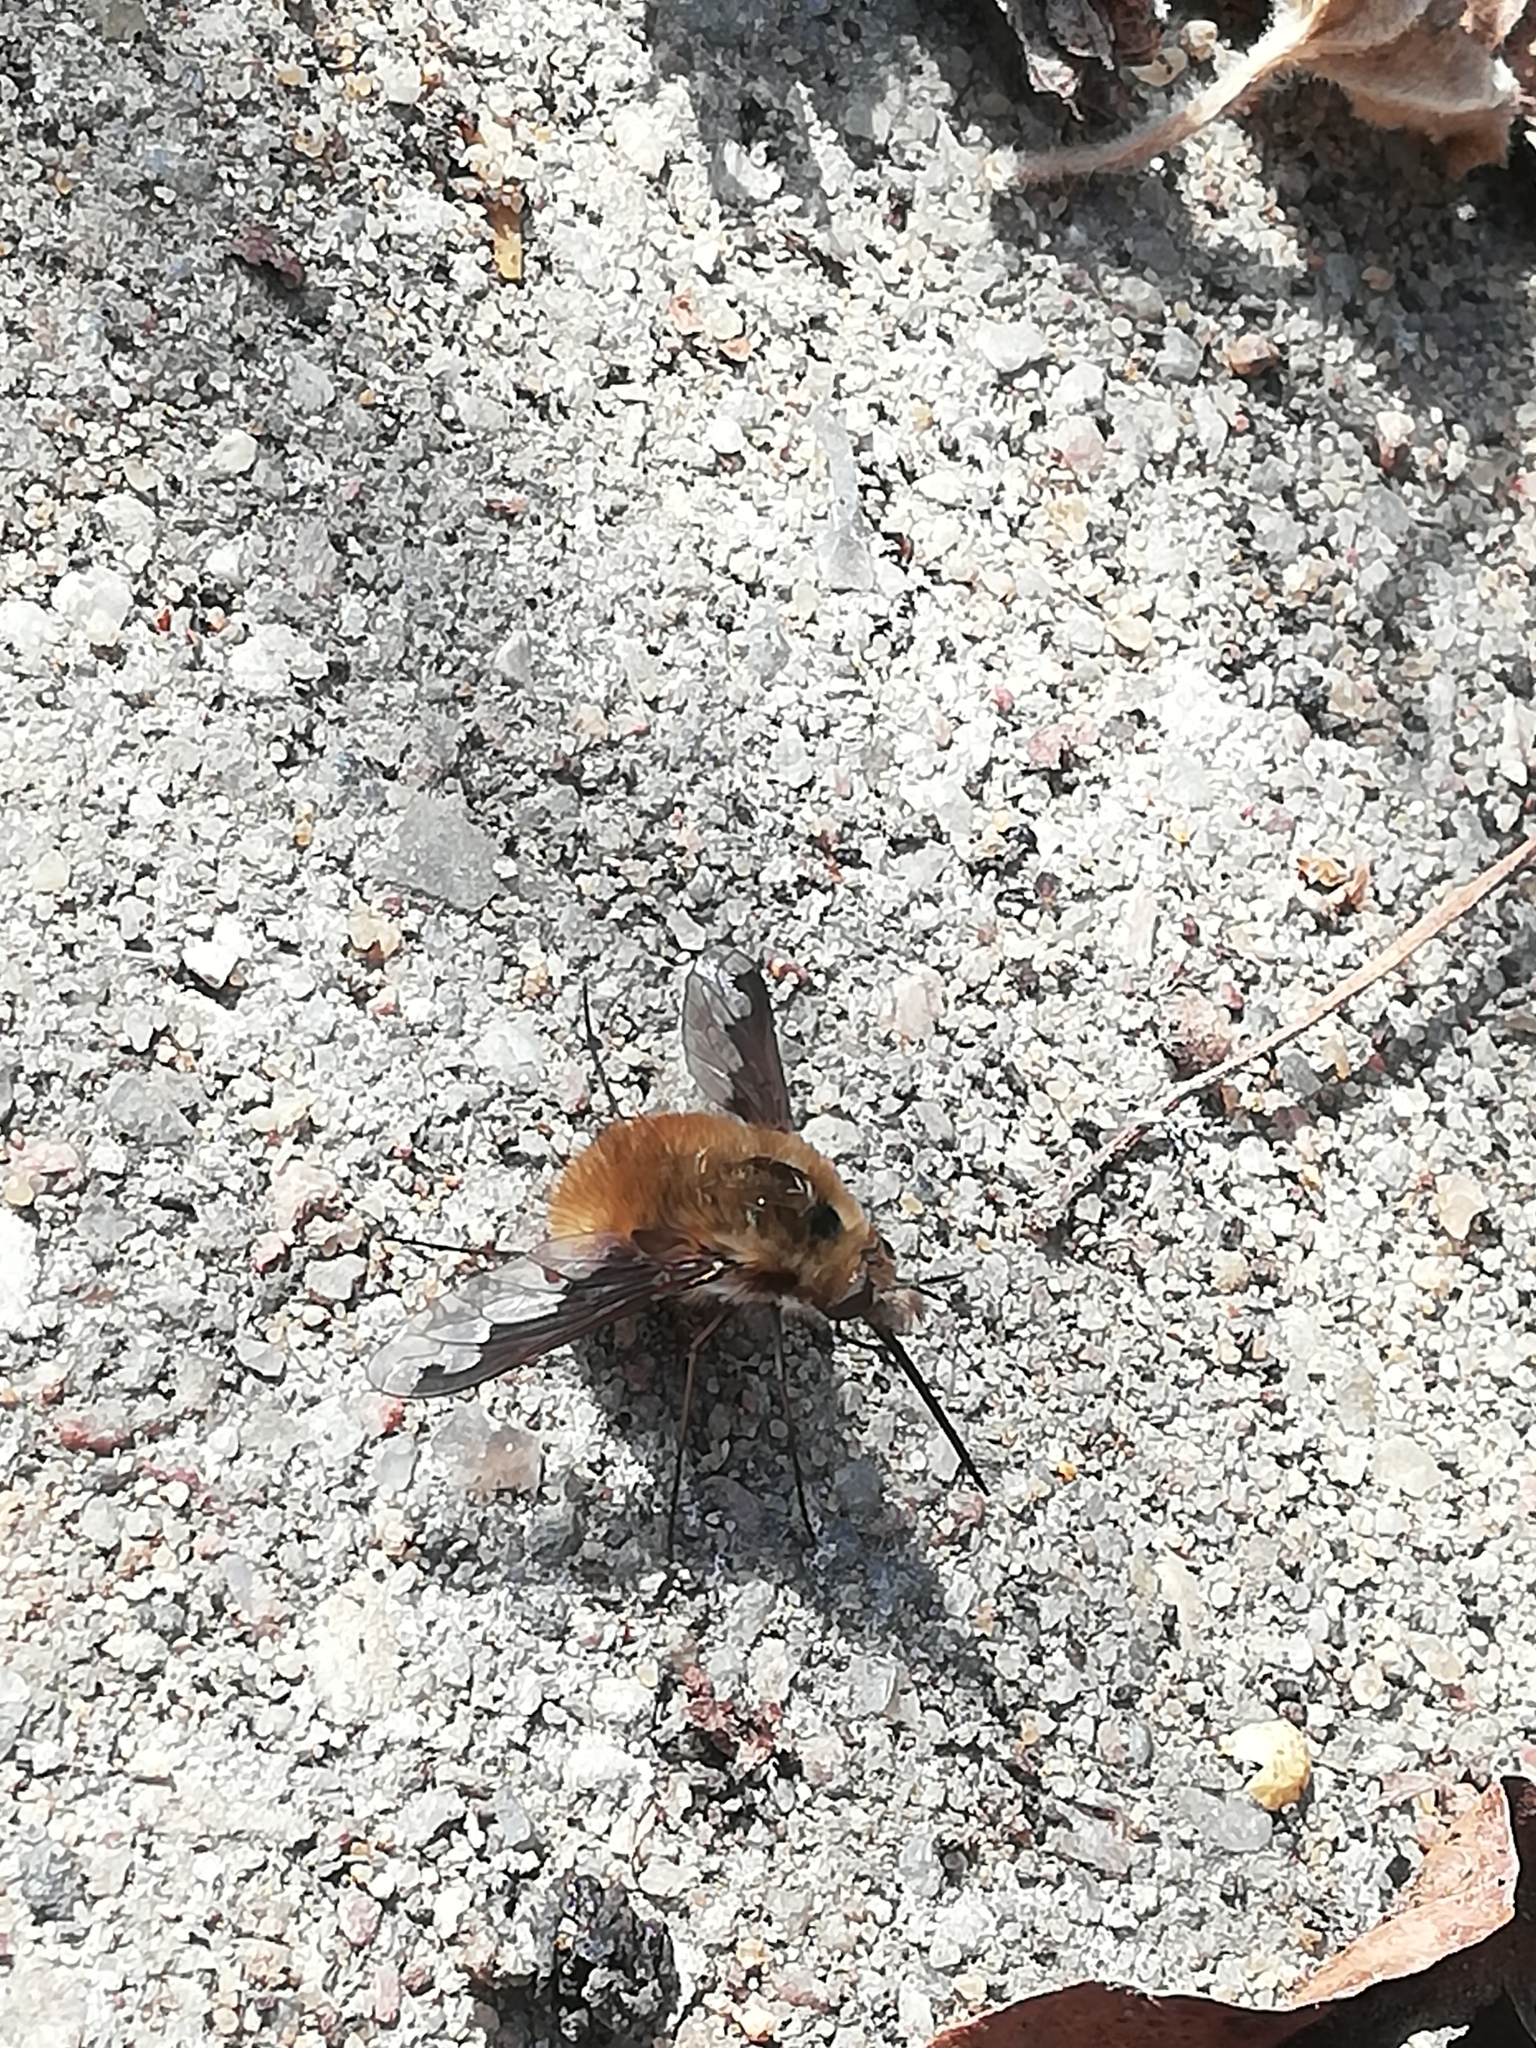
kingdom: Animalia
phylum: Arthropoda
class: Insecta
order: Diptera
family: Bombyliidae
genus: Bombylius
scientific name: Bombylius major
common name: Bee fly
